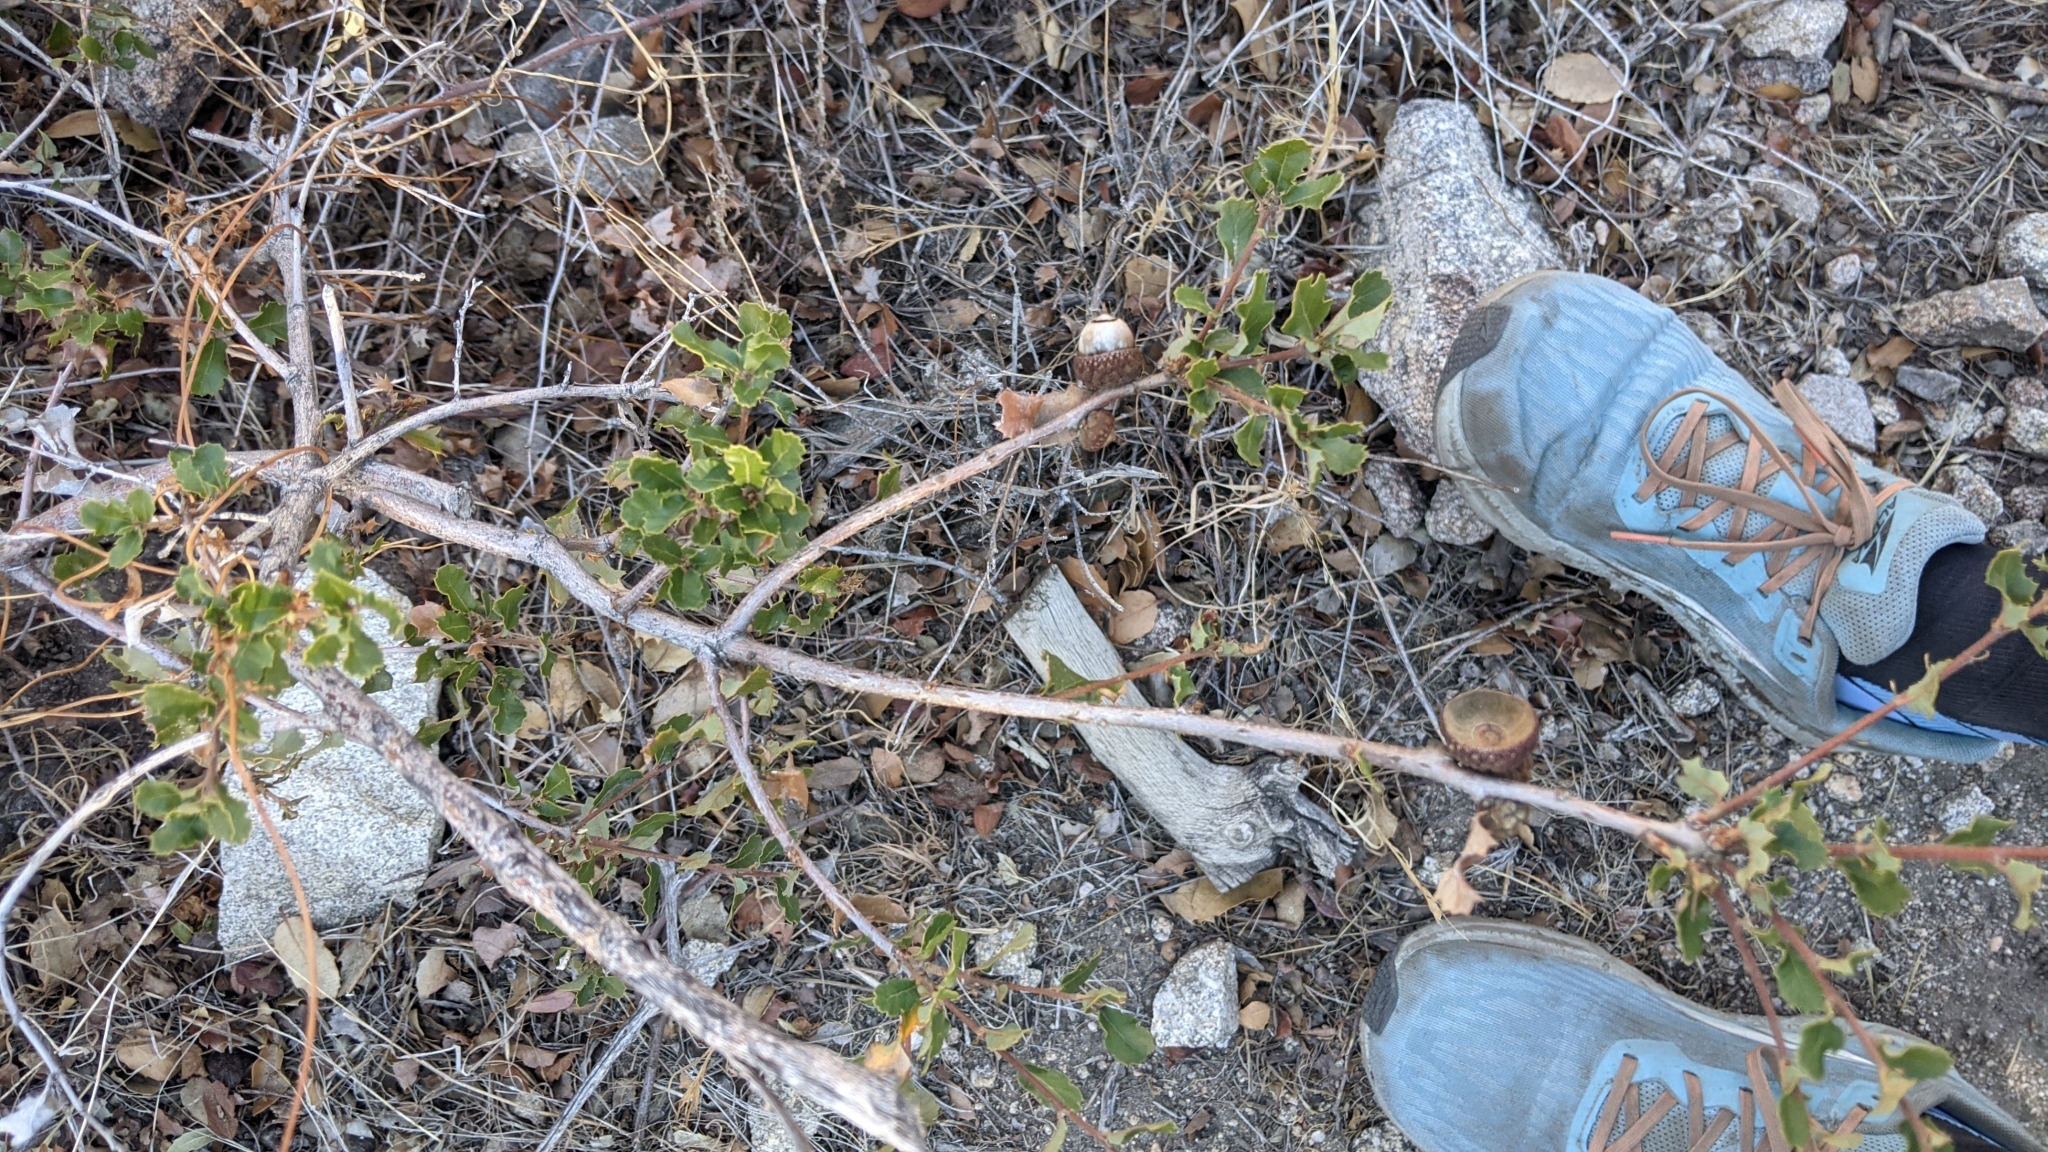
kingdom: Plantae
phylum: Tracheophyta
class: Magnoliopsida
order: Fagales
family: Fagaceae
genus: Quercus
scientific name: Quercus berberidifolia
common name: California scrub oak
